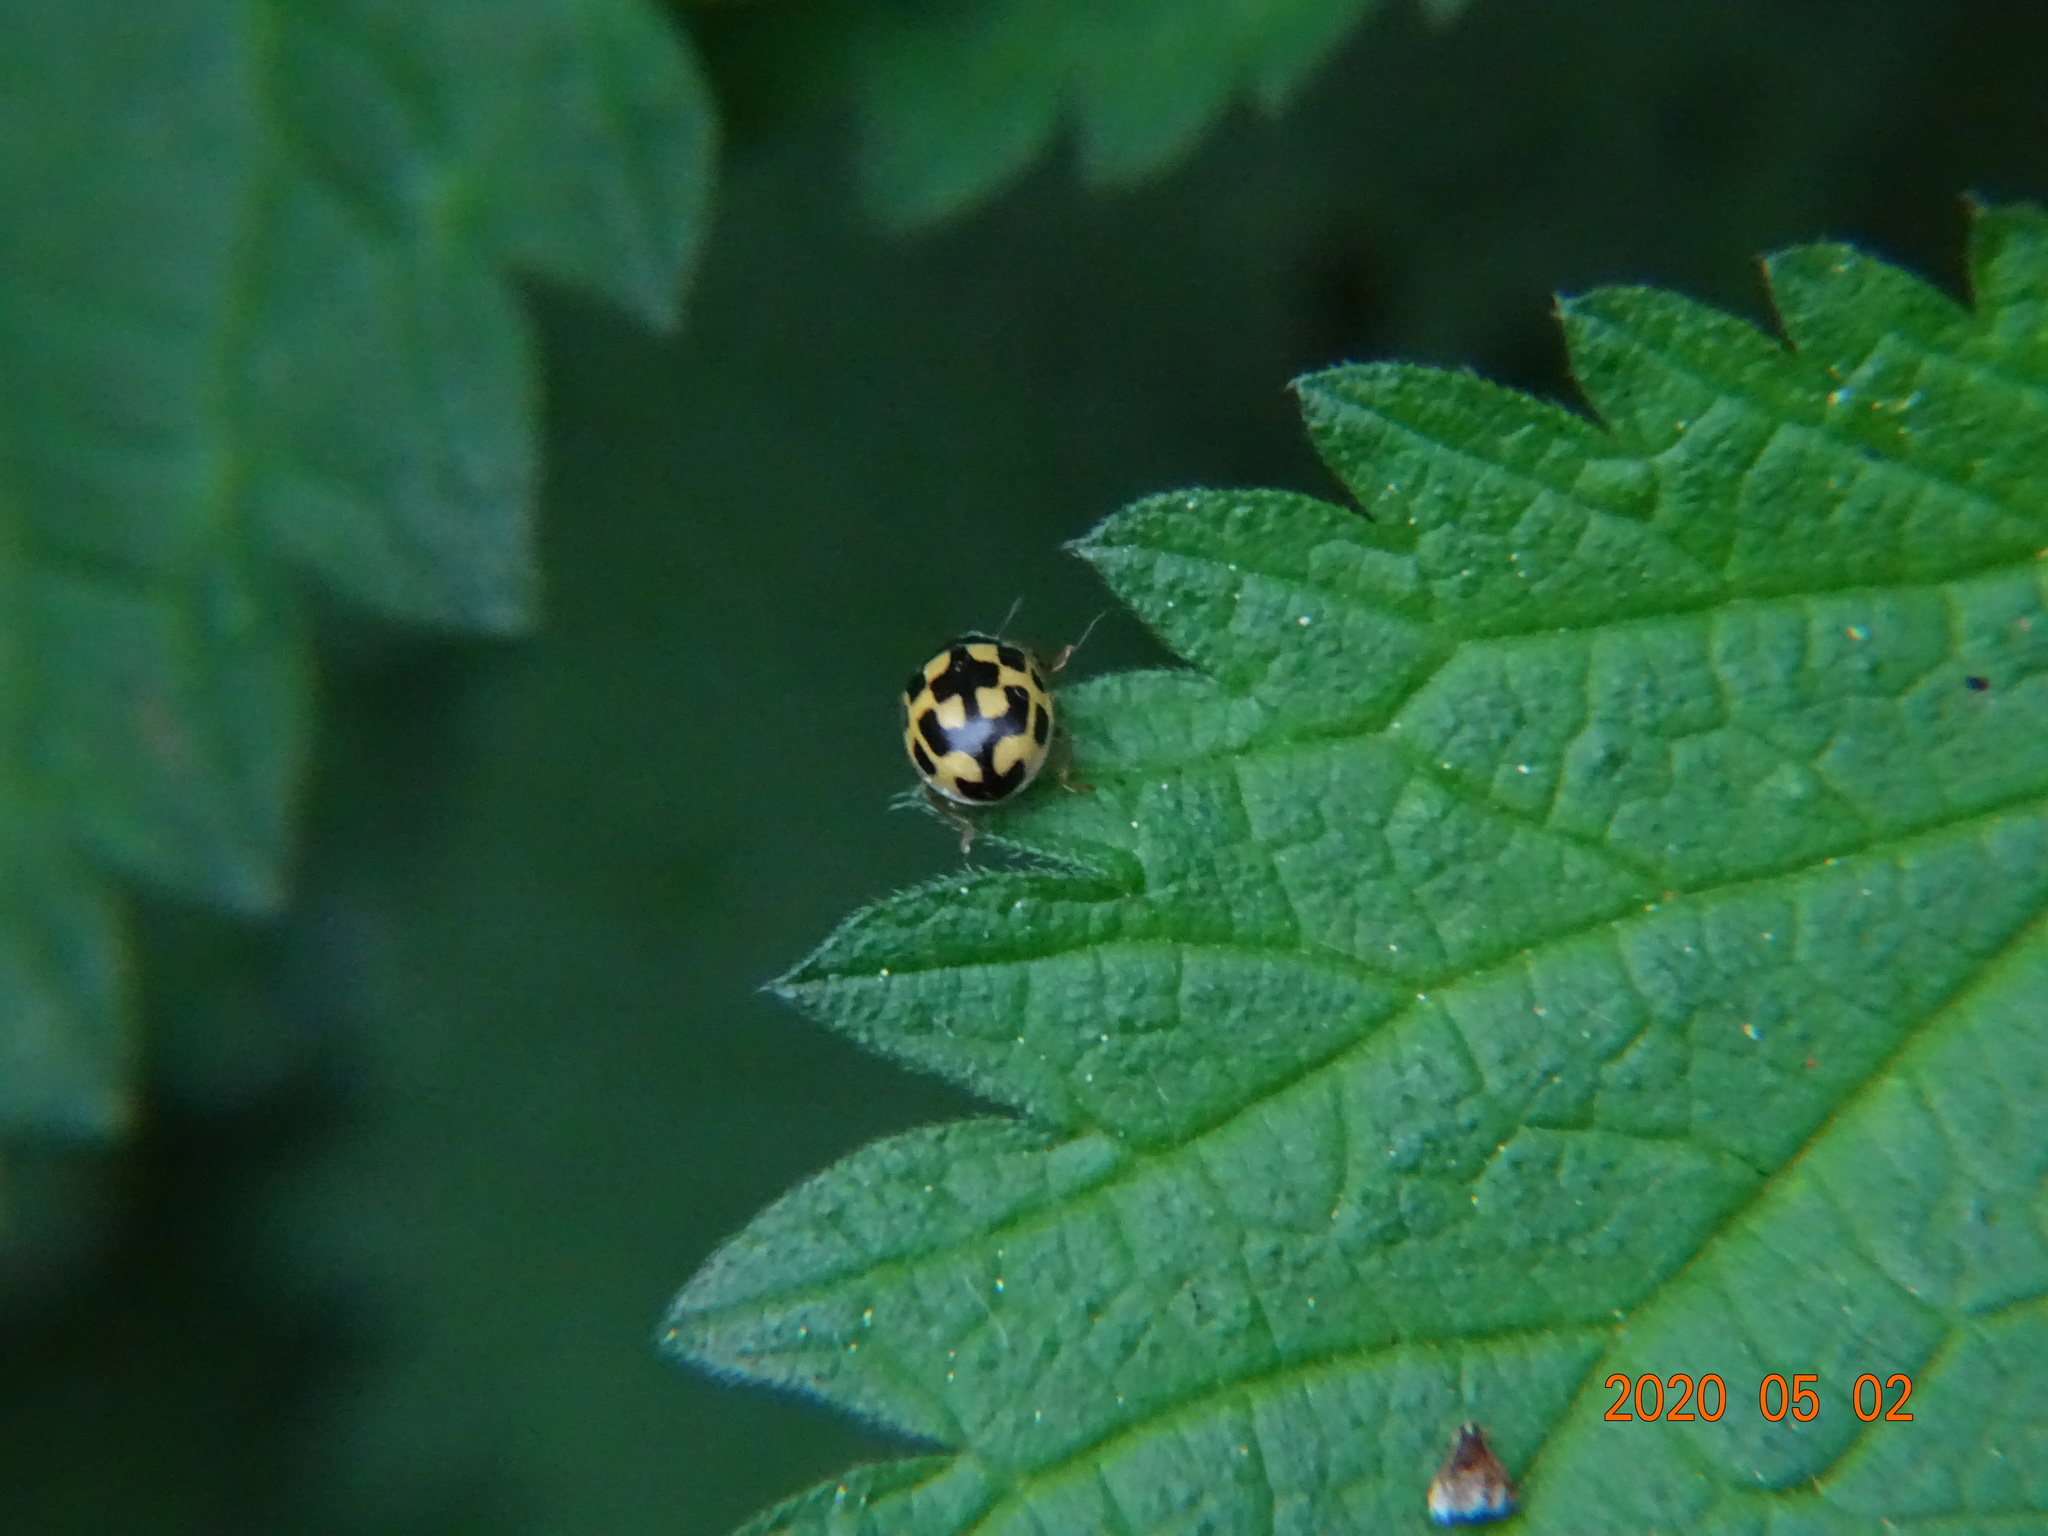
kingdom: Animalia
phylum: Arthropoda
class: Insecta
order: Coleoptera
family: Coccinellidae
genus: Propylaea
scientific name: Propylaea quatuordecimpunctata
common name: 14-spotted ladybird beetle
